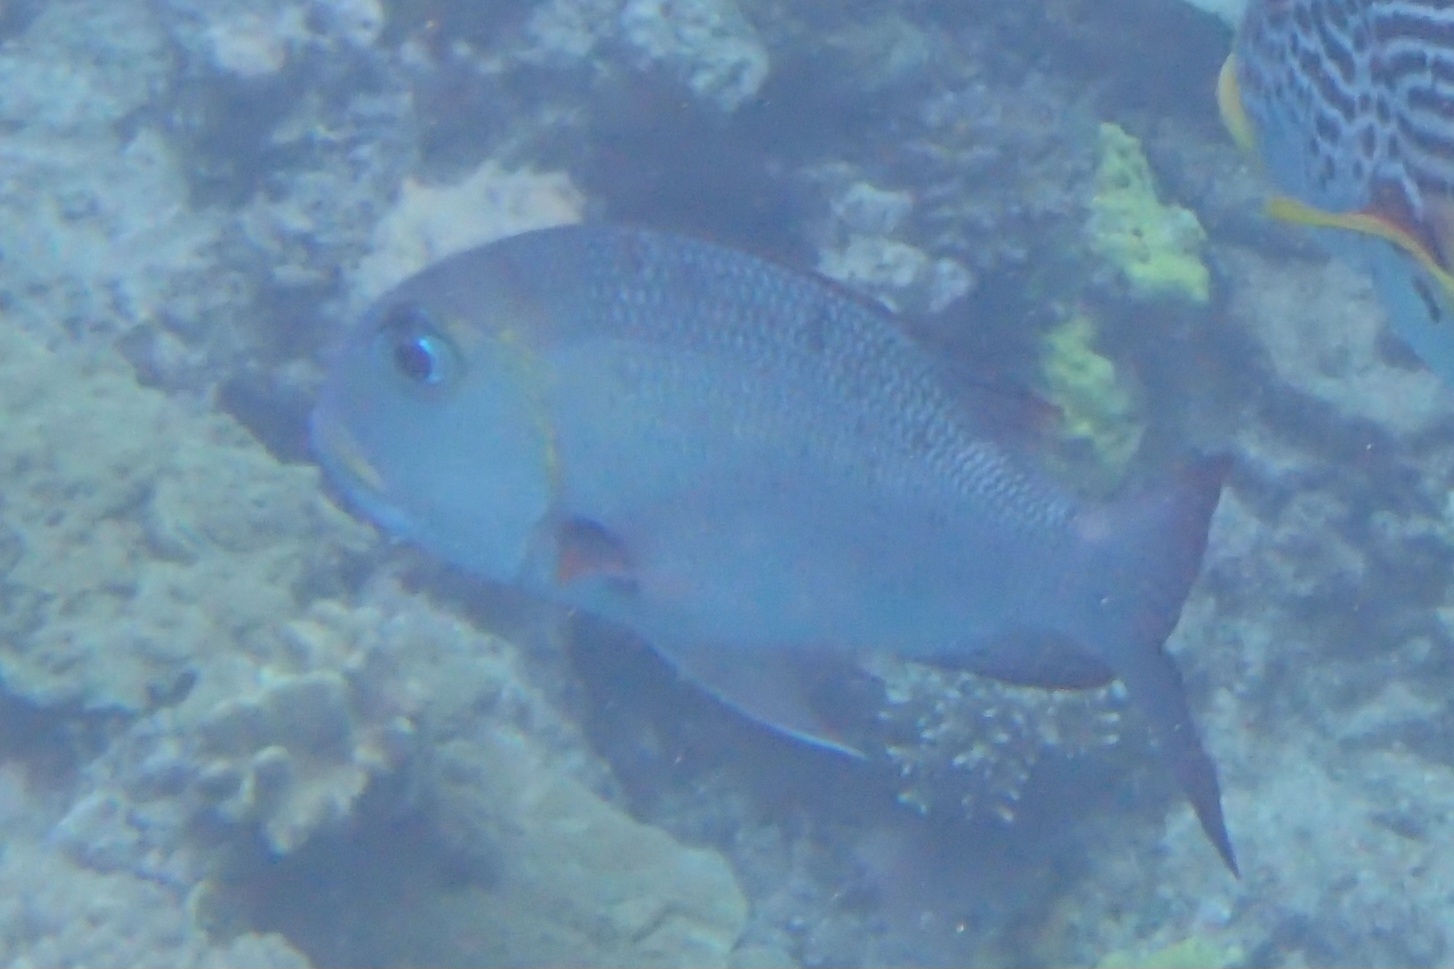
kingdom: Animalia
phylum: Chordata
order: Perciformes
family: Lethrinidae
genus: Monotaxis
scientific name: Monotaxis grandoculis
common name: Bigeye emperor
